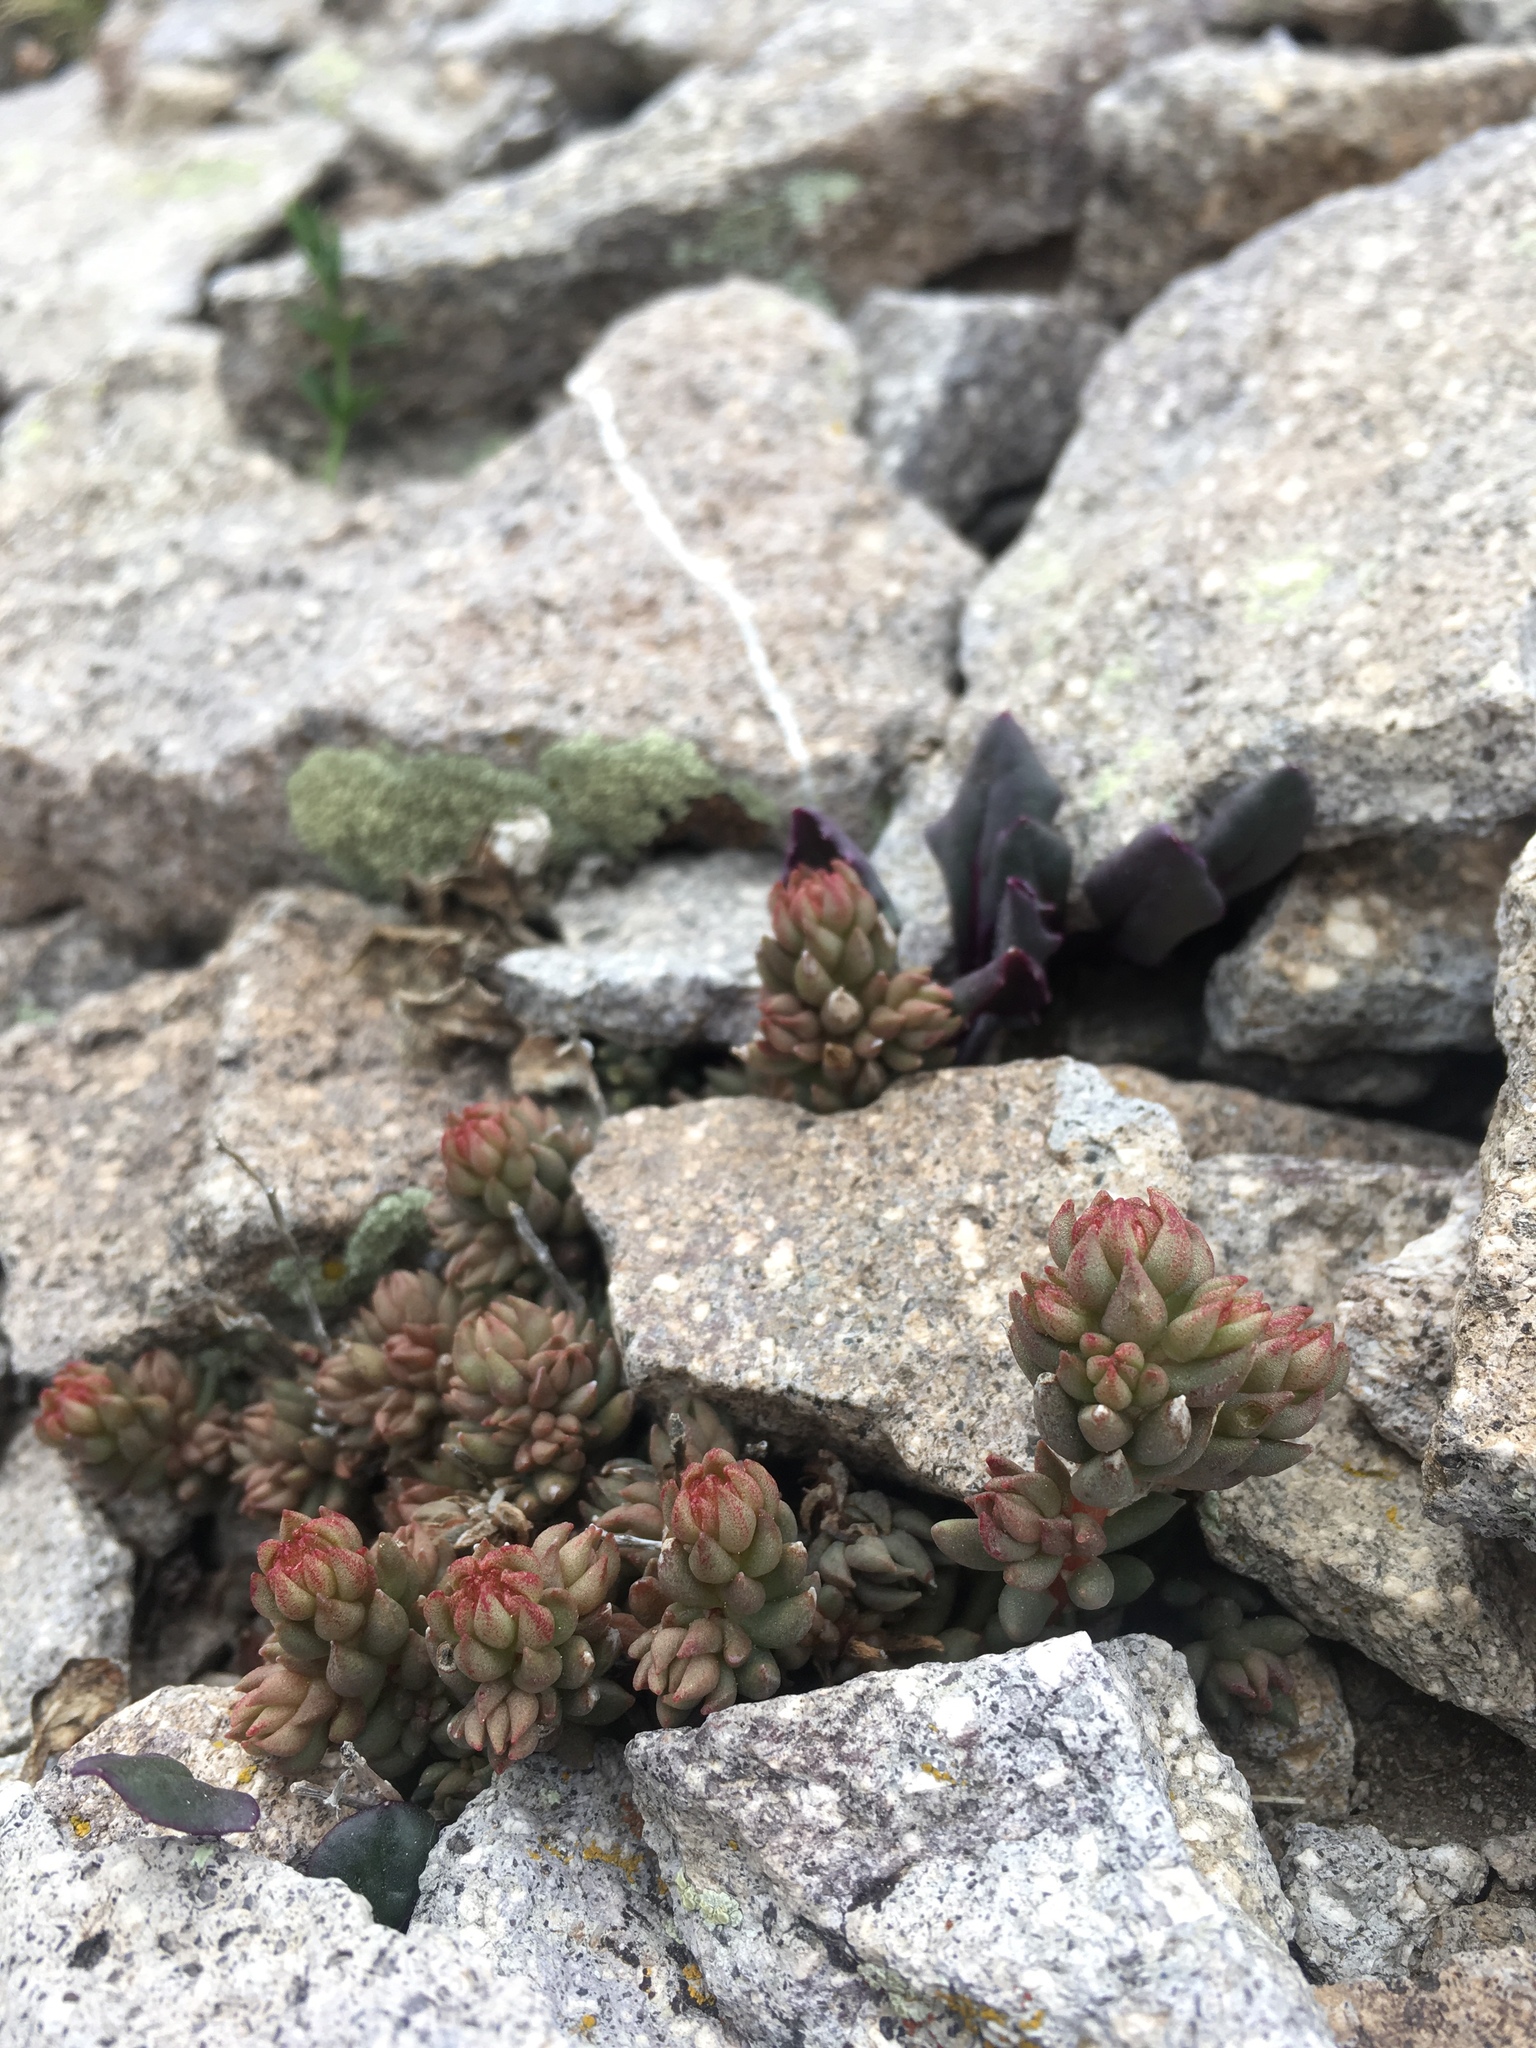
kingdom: Plantae
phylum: Tracheophyta
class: Magnoliopsida
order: Saxifragales
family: Crassulaceae
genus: Sedum
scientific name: Sedum lanceolatum
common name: Common stonecrop
